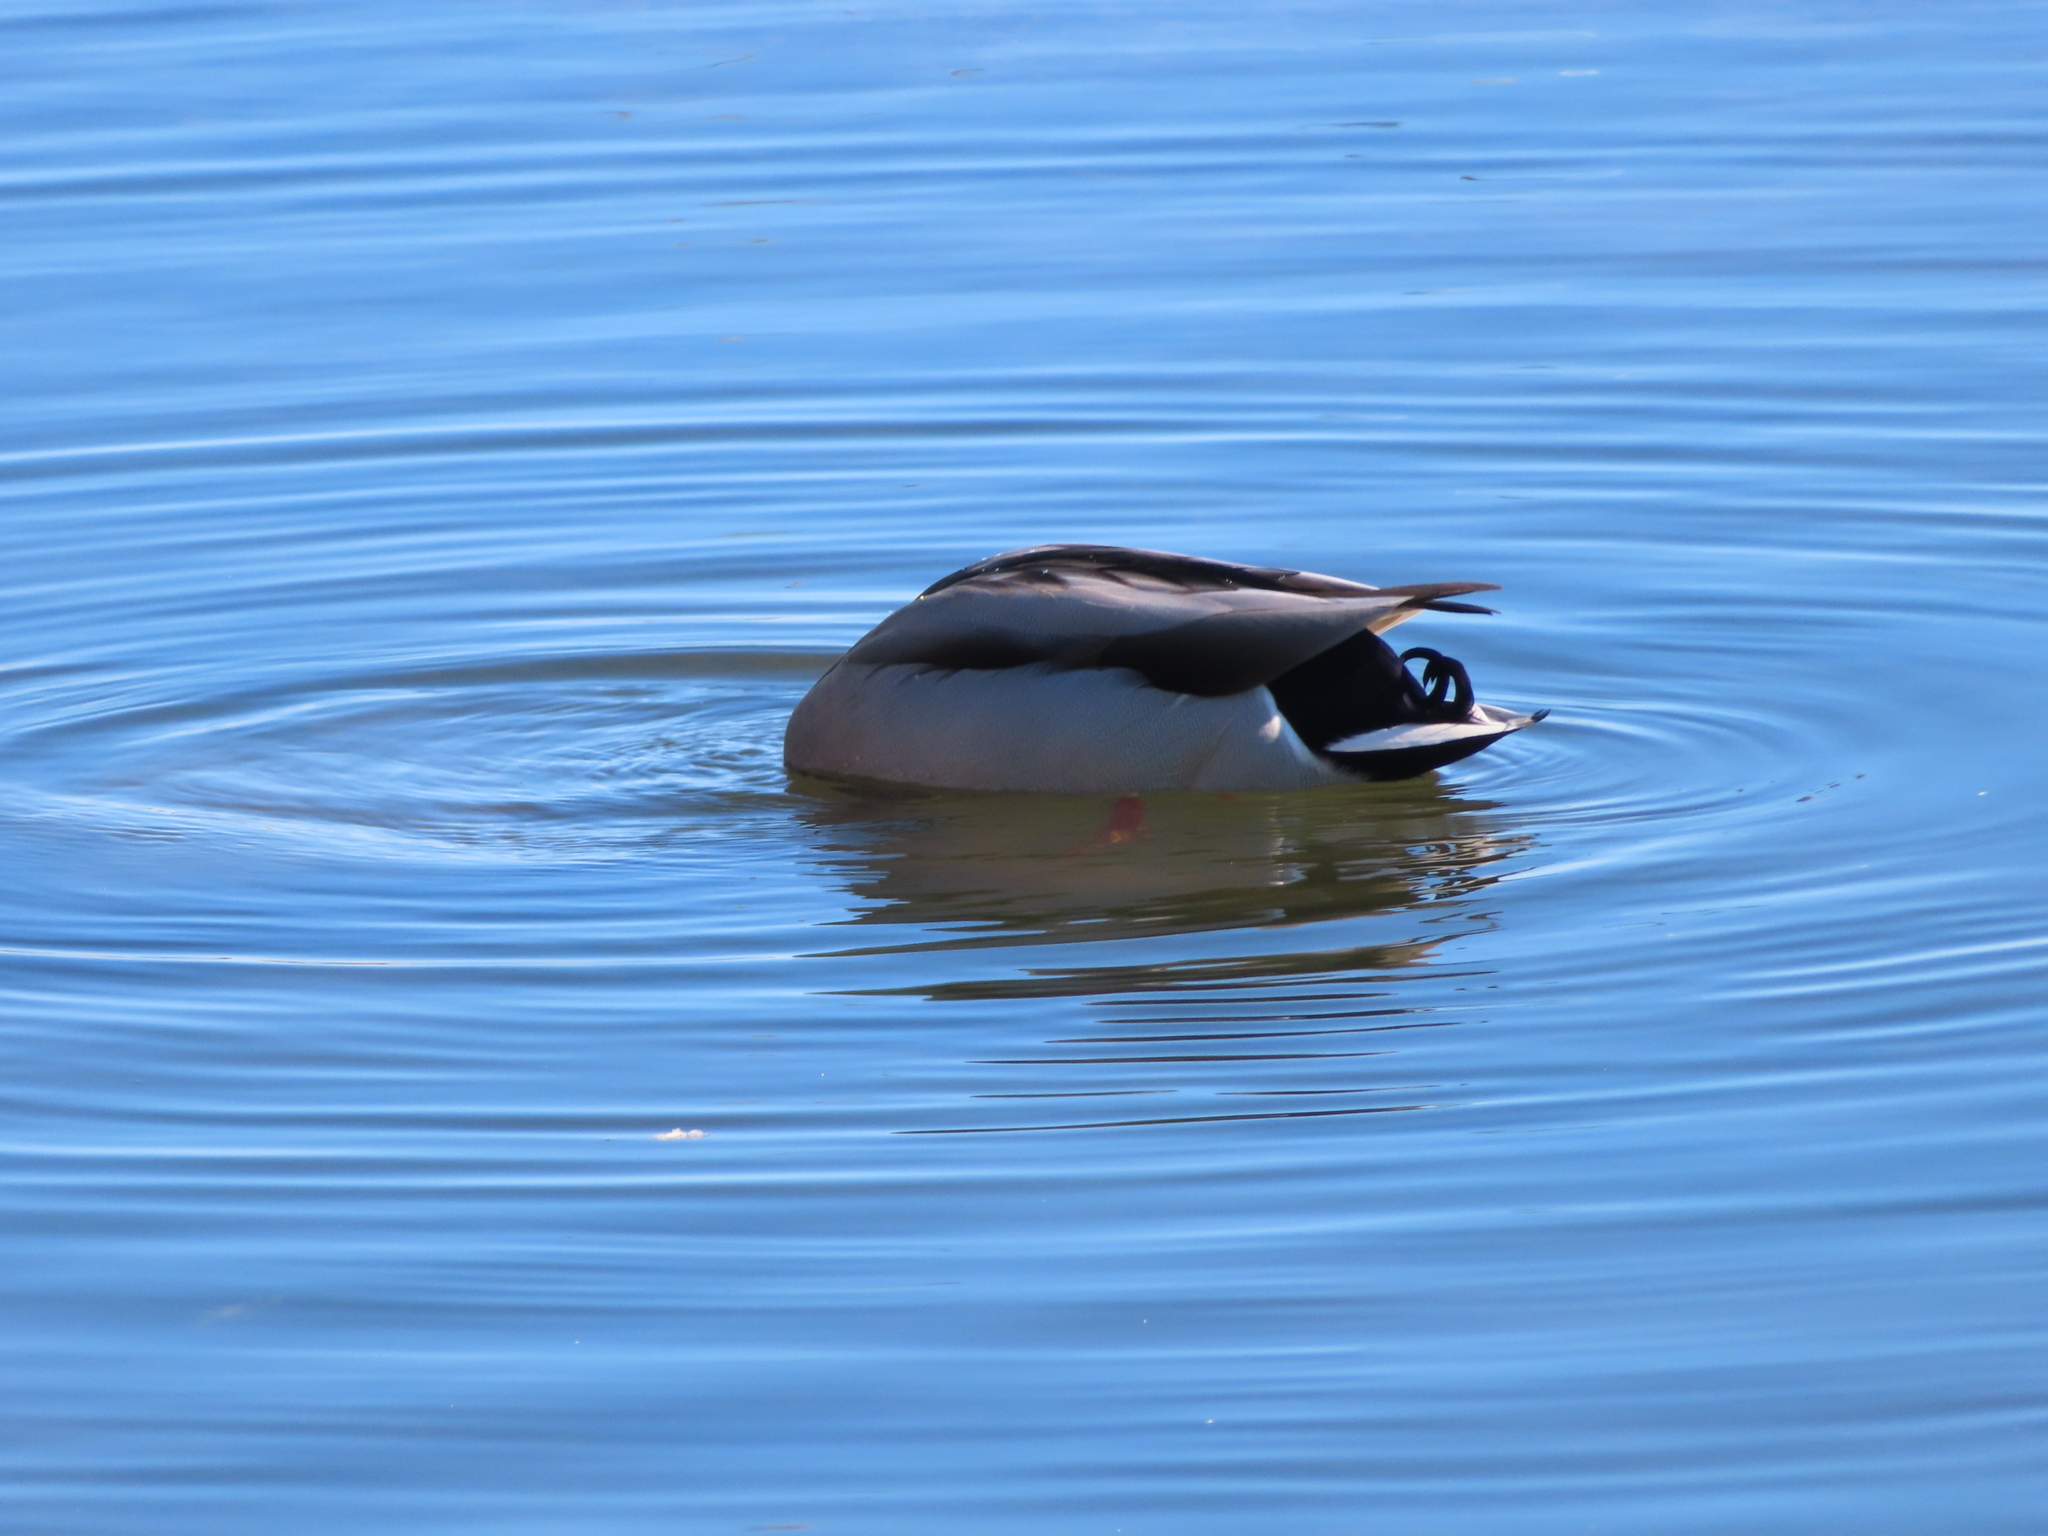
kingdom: Animalia
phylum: Chordata
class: Aves
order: Anseriformes
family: Anatidae
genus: Anas
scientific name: Anas platyrhynchos
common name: Mallard
